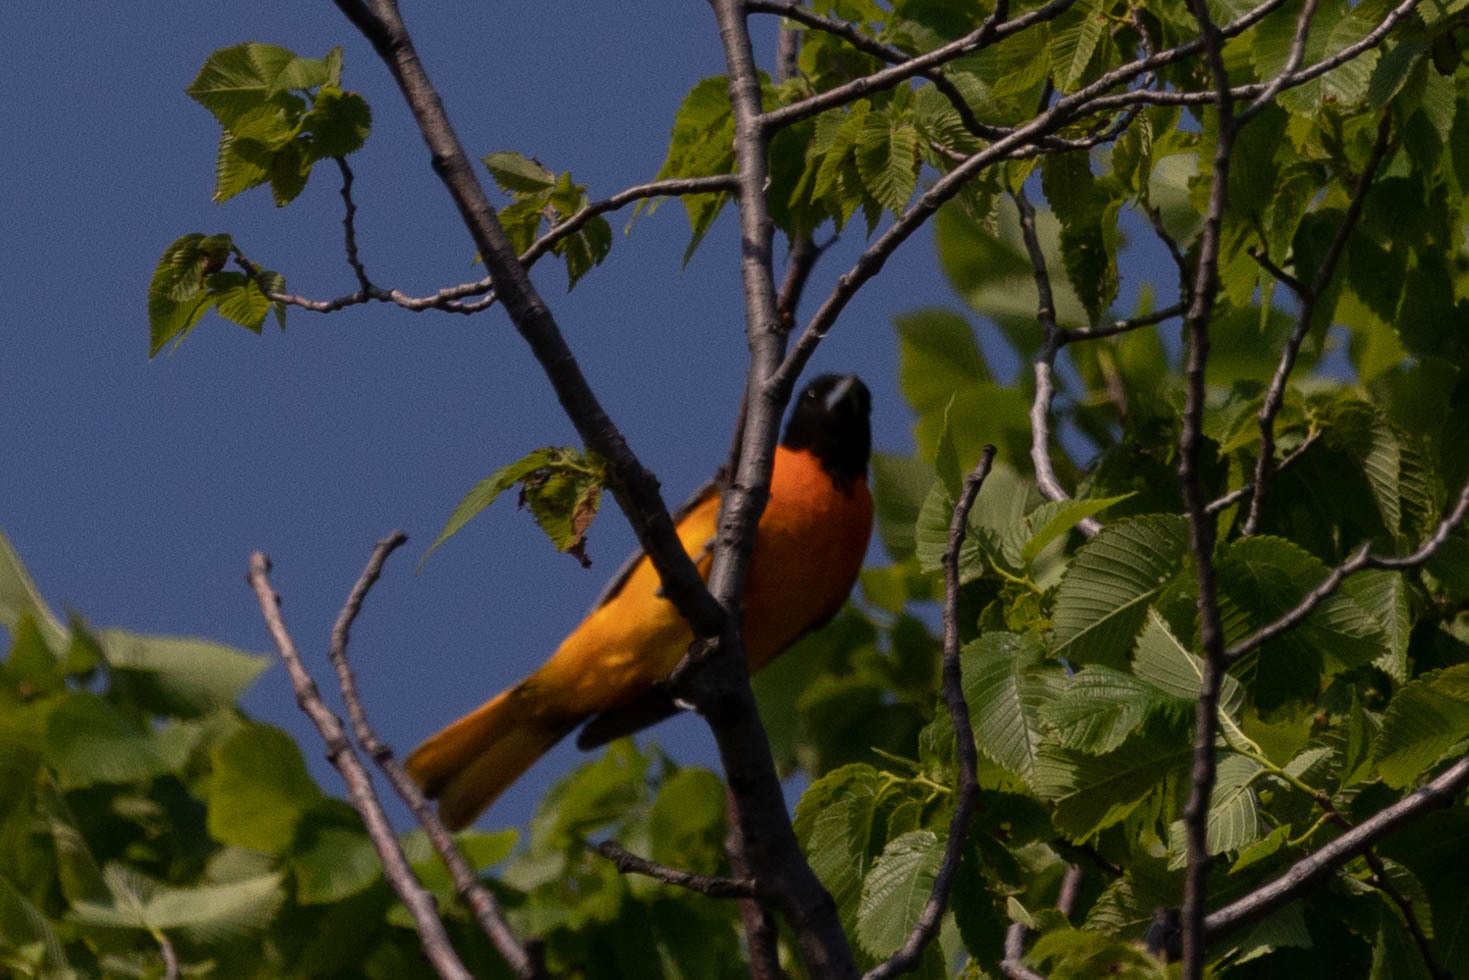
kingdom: Animalia
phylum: Chordata
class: Aves
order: Passeriformes
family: Icteridae
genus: Icterus
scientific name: Icterus galbula
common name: Baltimore oriole
